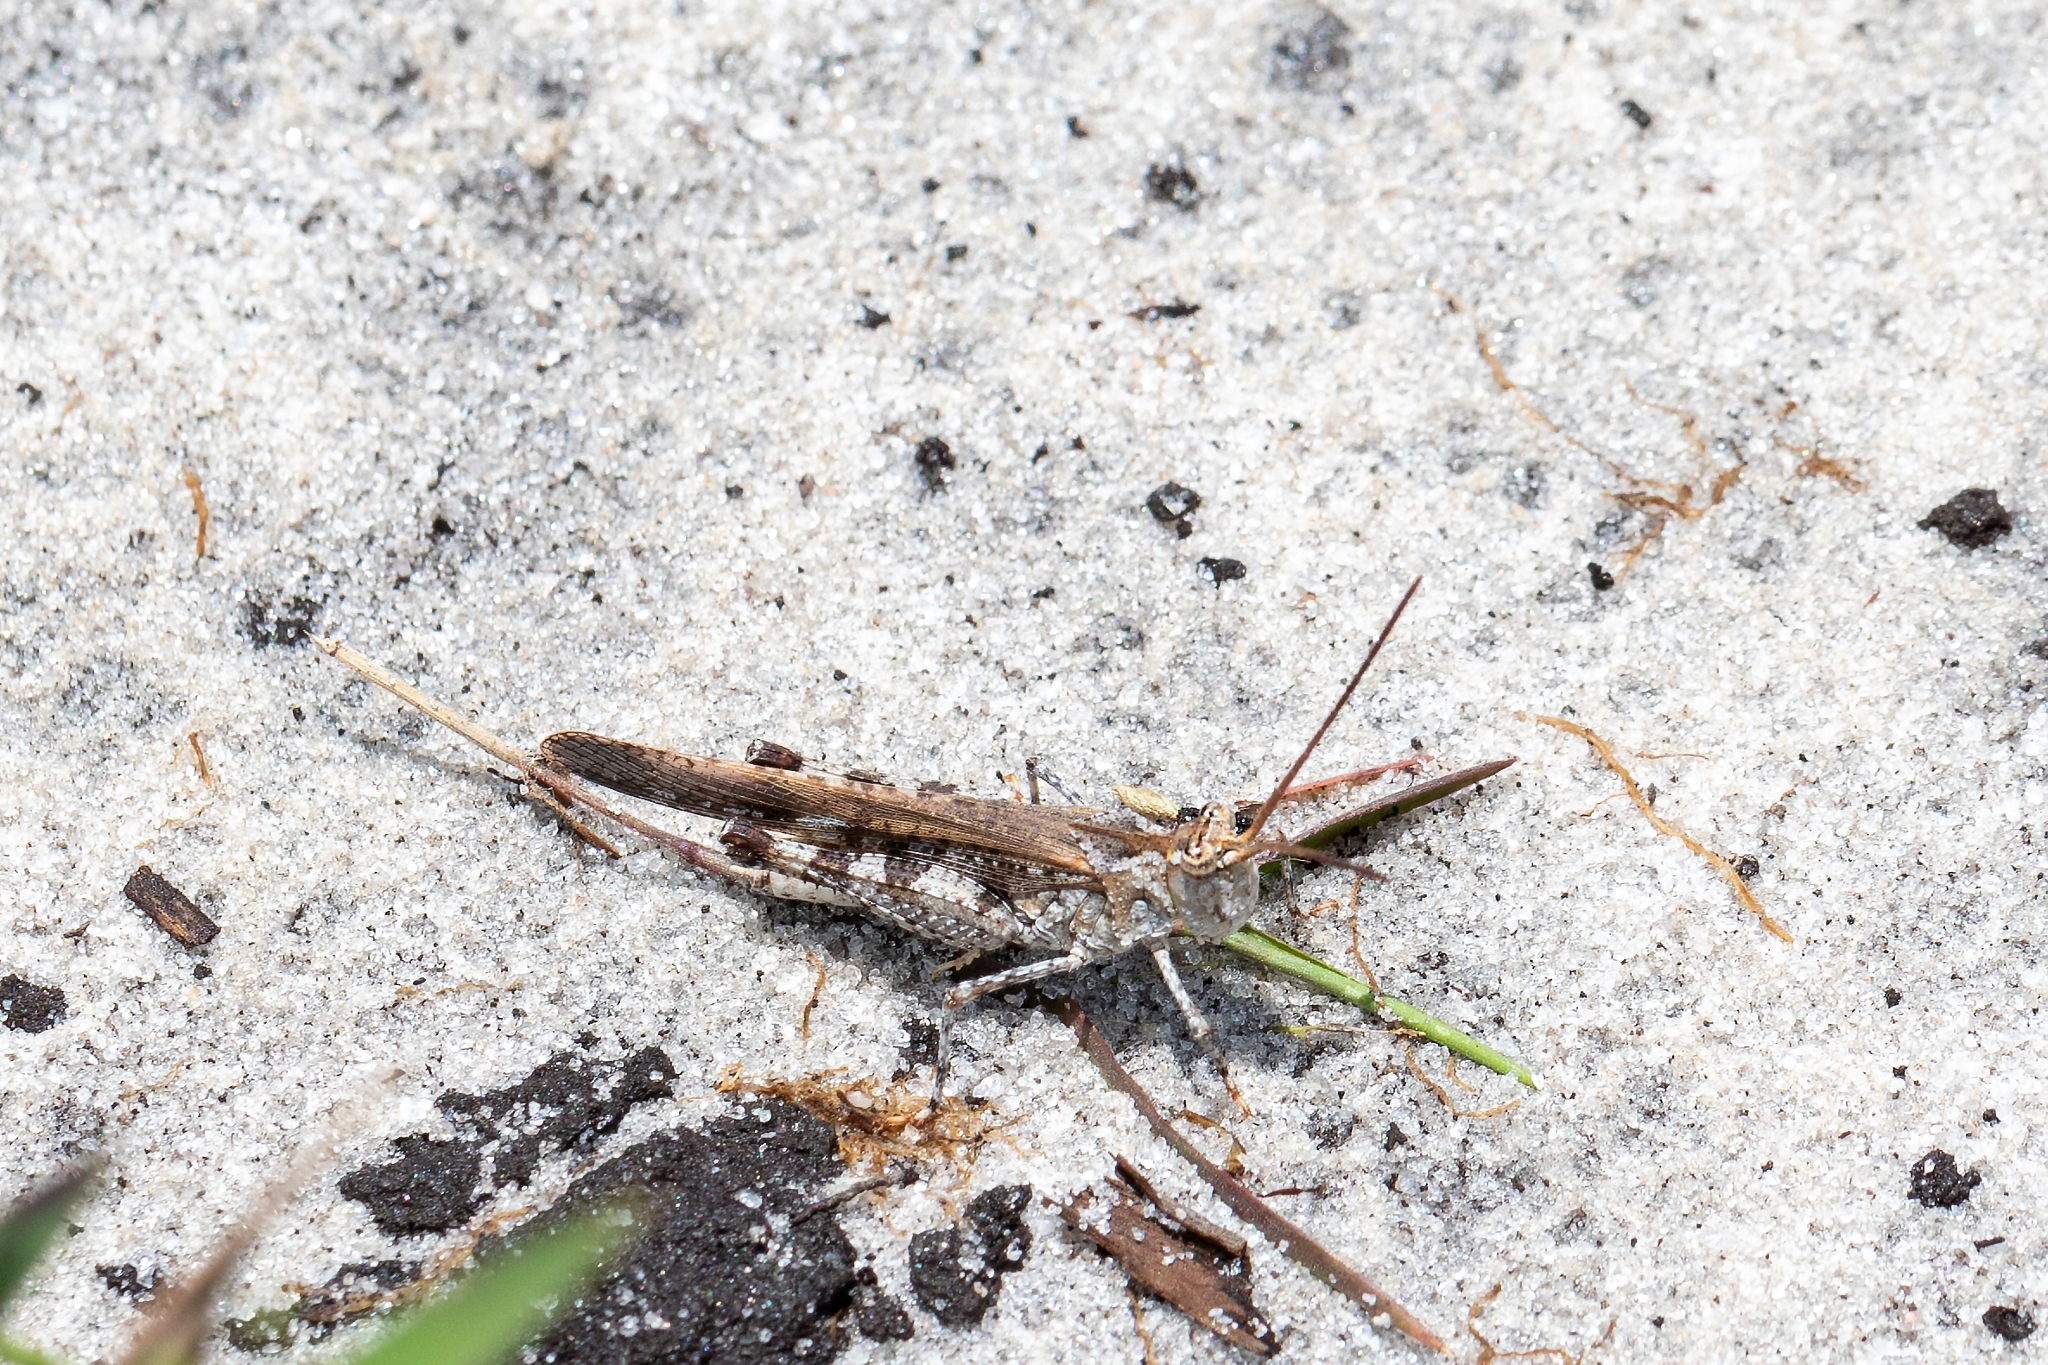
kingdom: Animalia
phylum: Arthropoda
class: Insecta
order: Orthoptera
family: Acrididae
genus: Psinidia
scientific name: Psinidia fenestralis
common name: Long-horned locust
